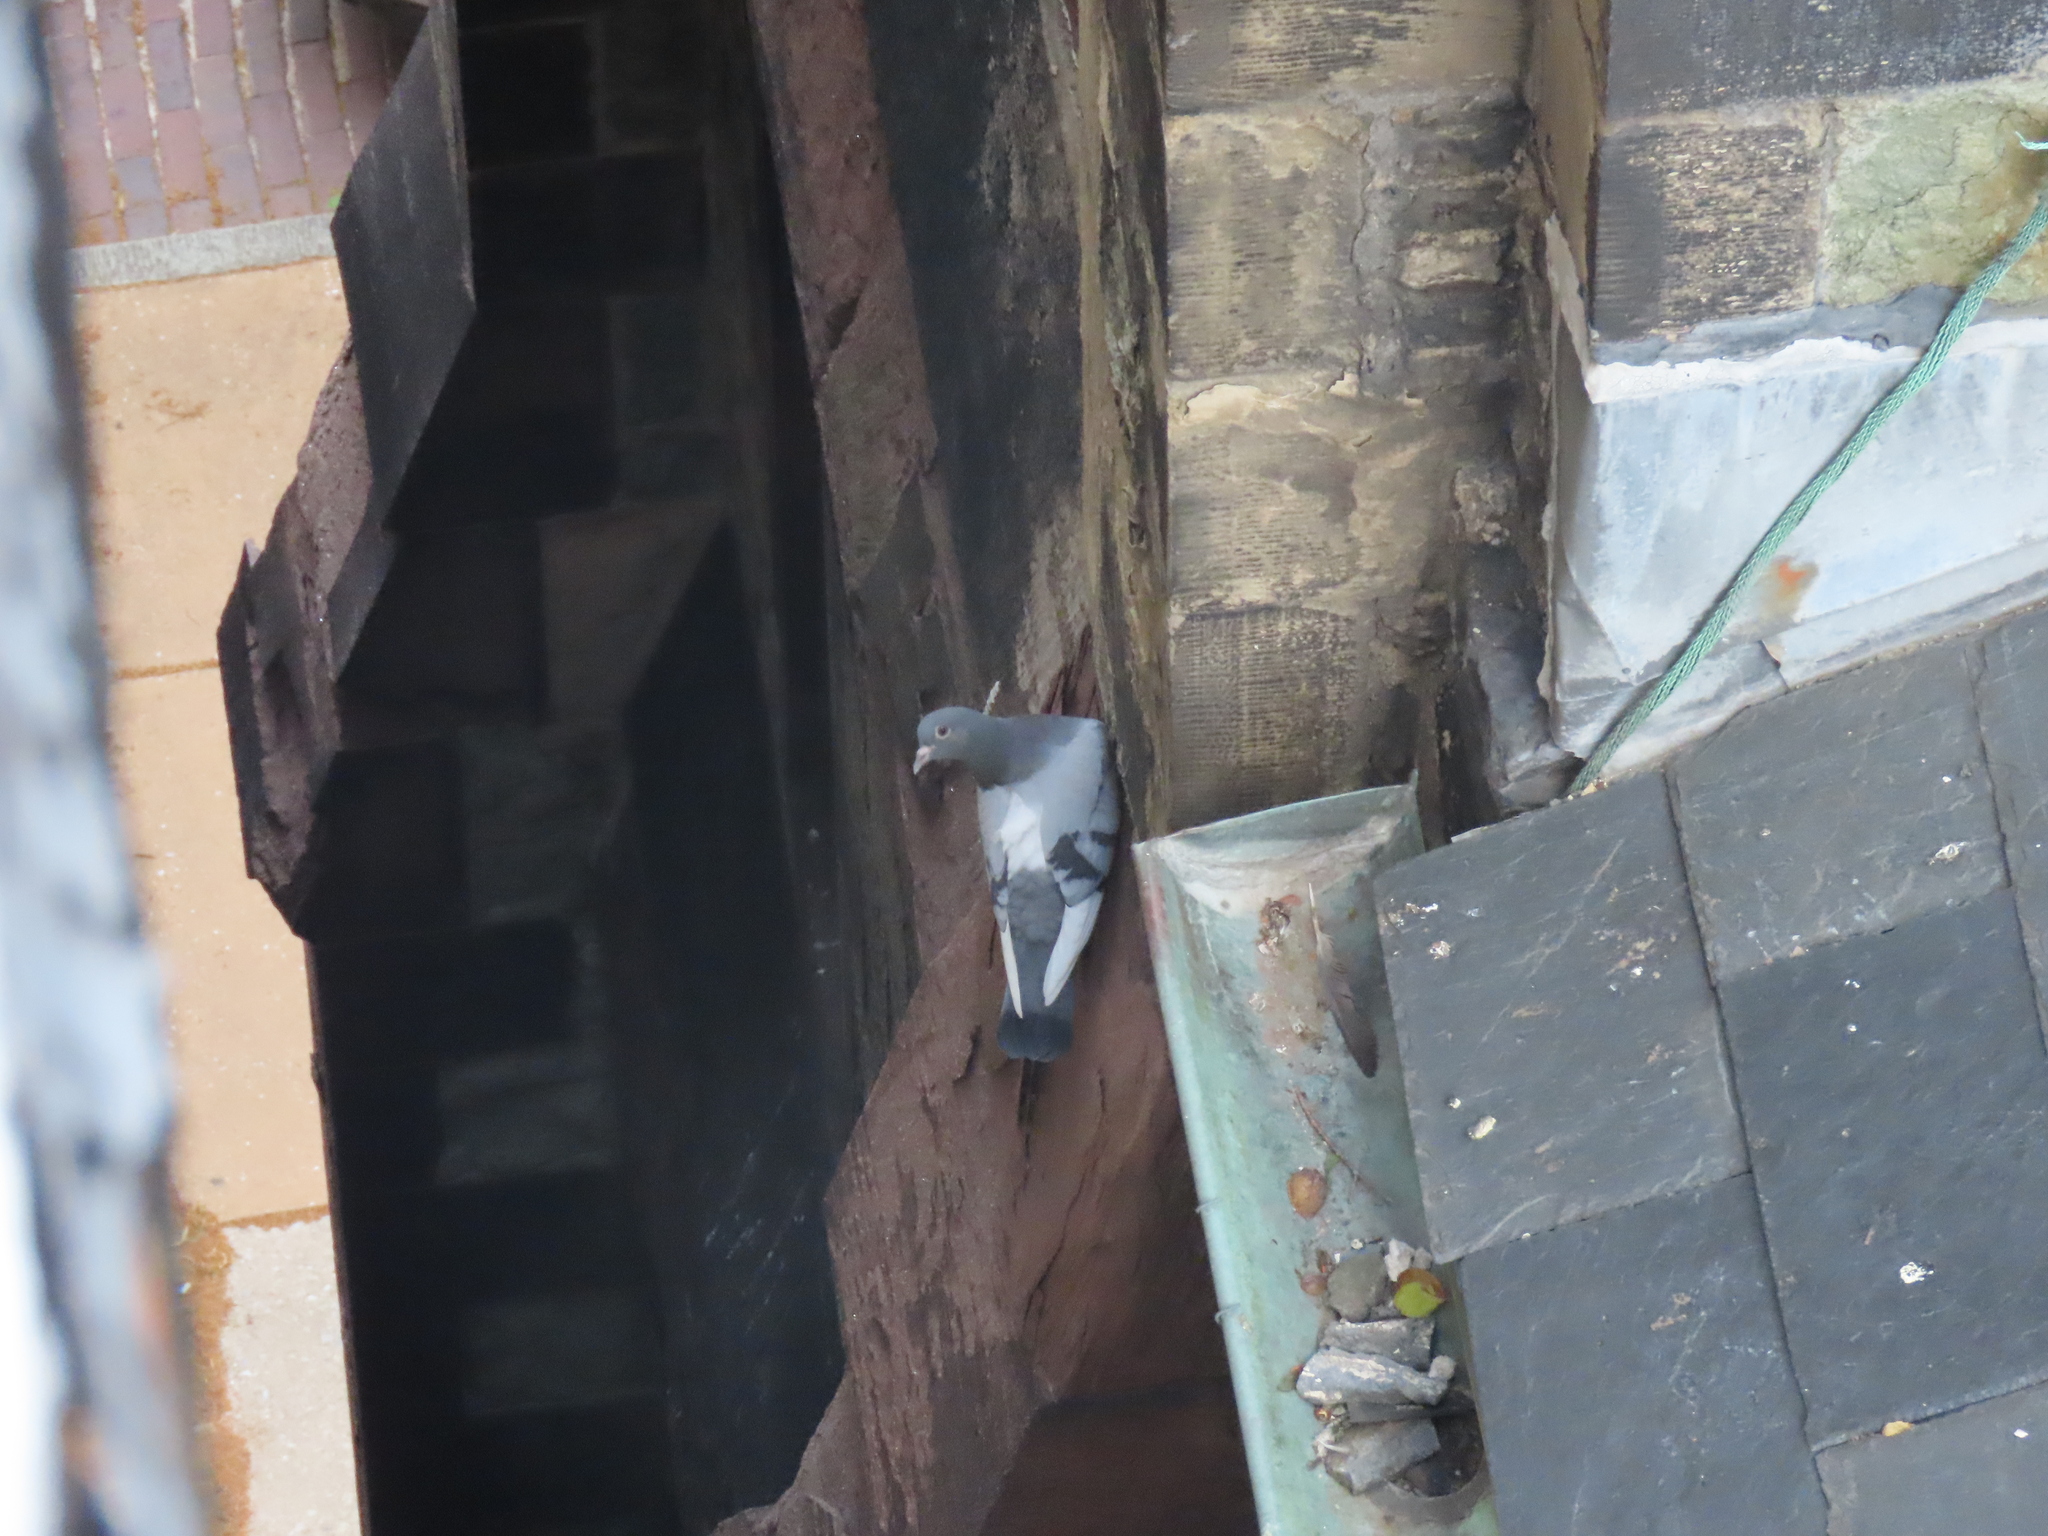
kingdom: Animalia
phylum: Chordata
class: Aves
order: Columbiformes
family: Columbidae
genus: Columba
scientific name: Columba livia
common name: Rock pigeon
